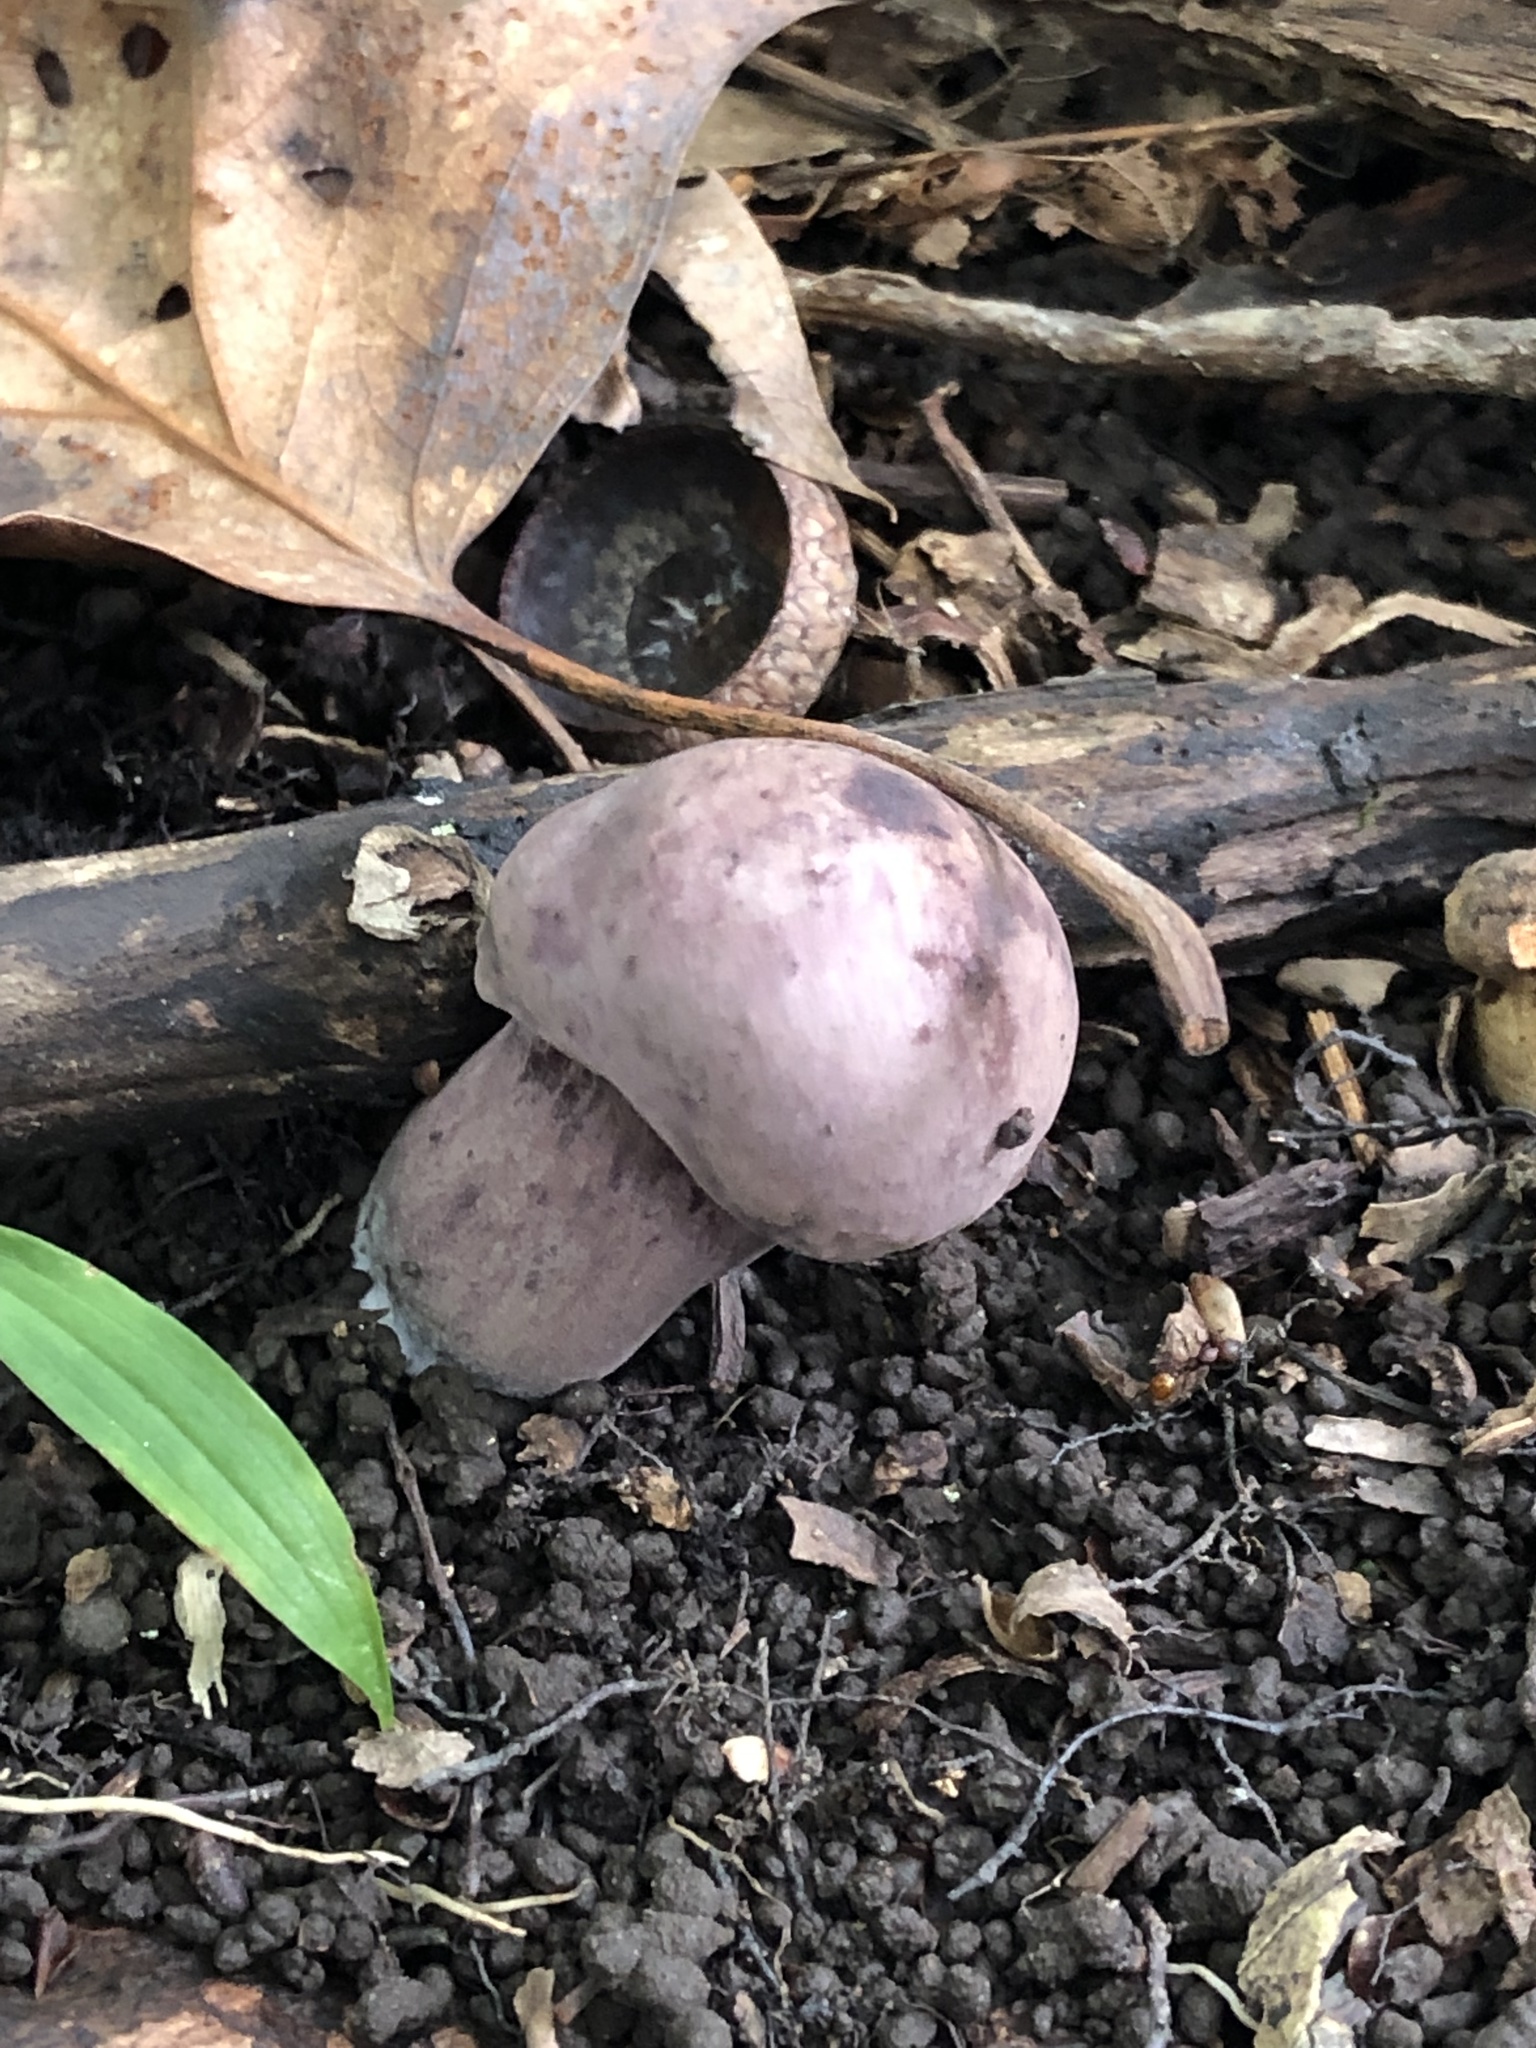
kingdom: Fungi
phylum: Basidiomycota
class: Agaricomycetes
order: Boletales
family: Boletaceae
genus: Tylopilus
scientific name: Tylopilus plumbeoviolaceus
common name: Violet gray bolete
